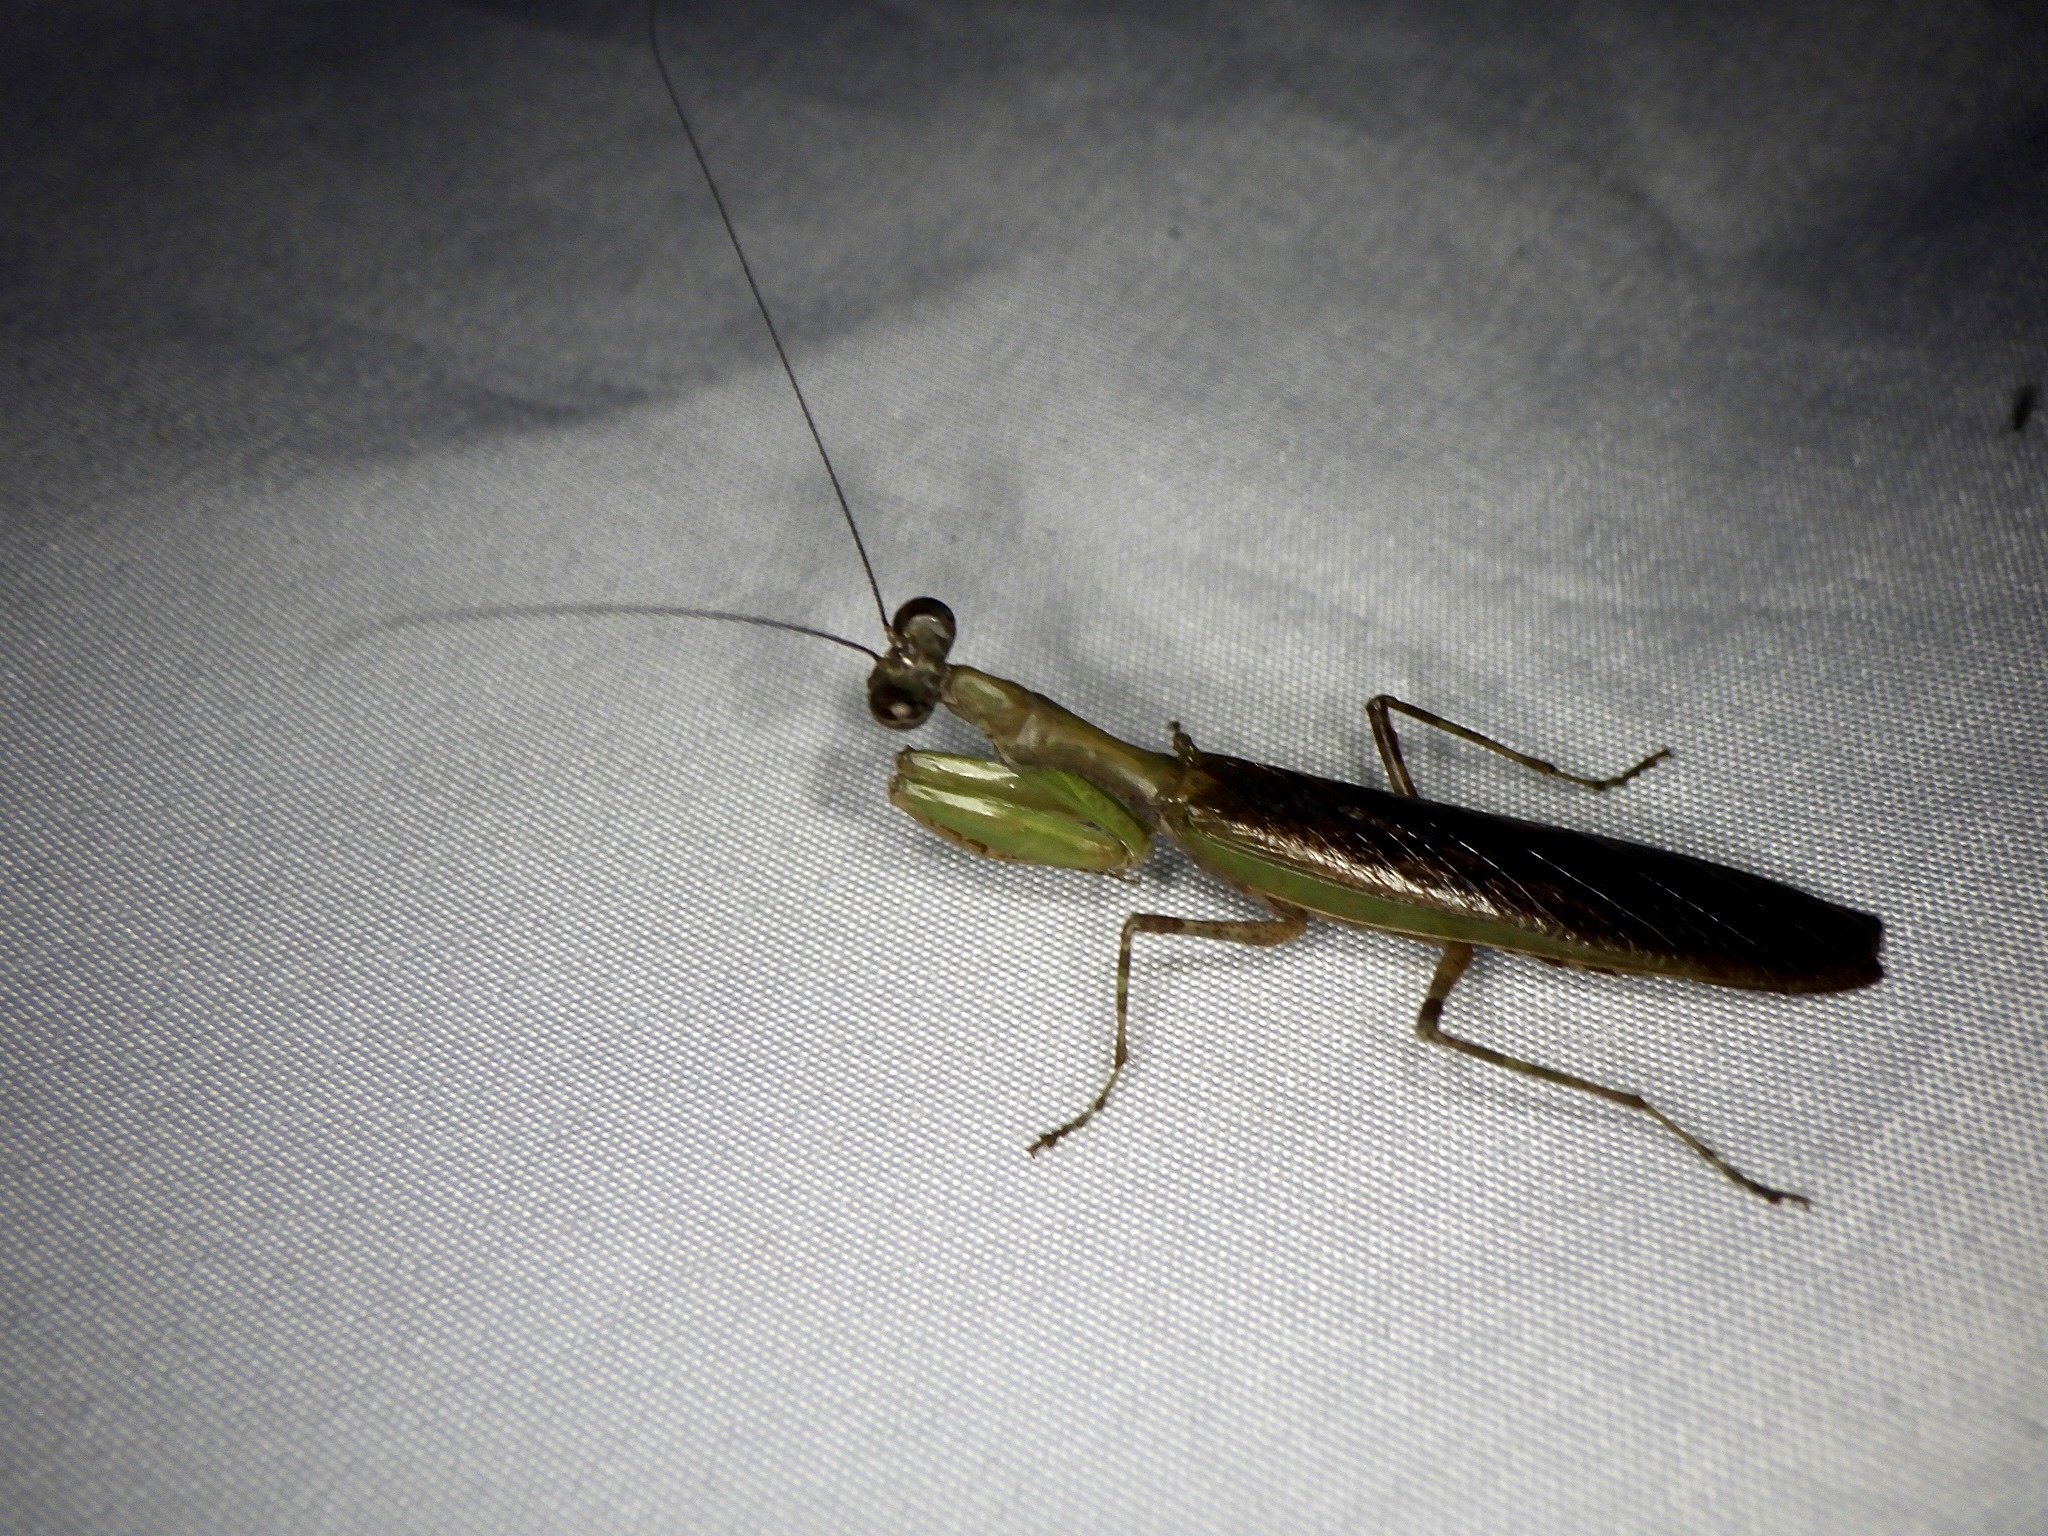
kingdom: Animalia
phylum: Arthropoda
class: Insecta
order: Mantodea
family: Hymenopodidae
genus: Acromantis
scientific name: Acromantis japonica
